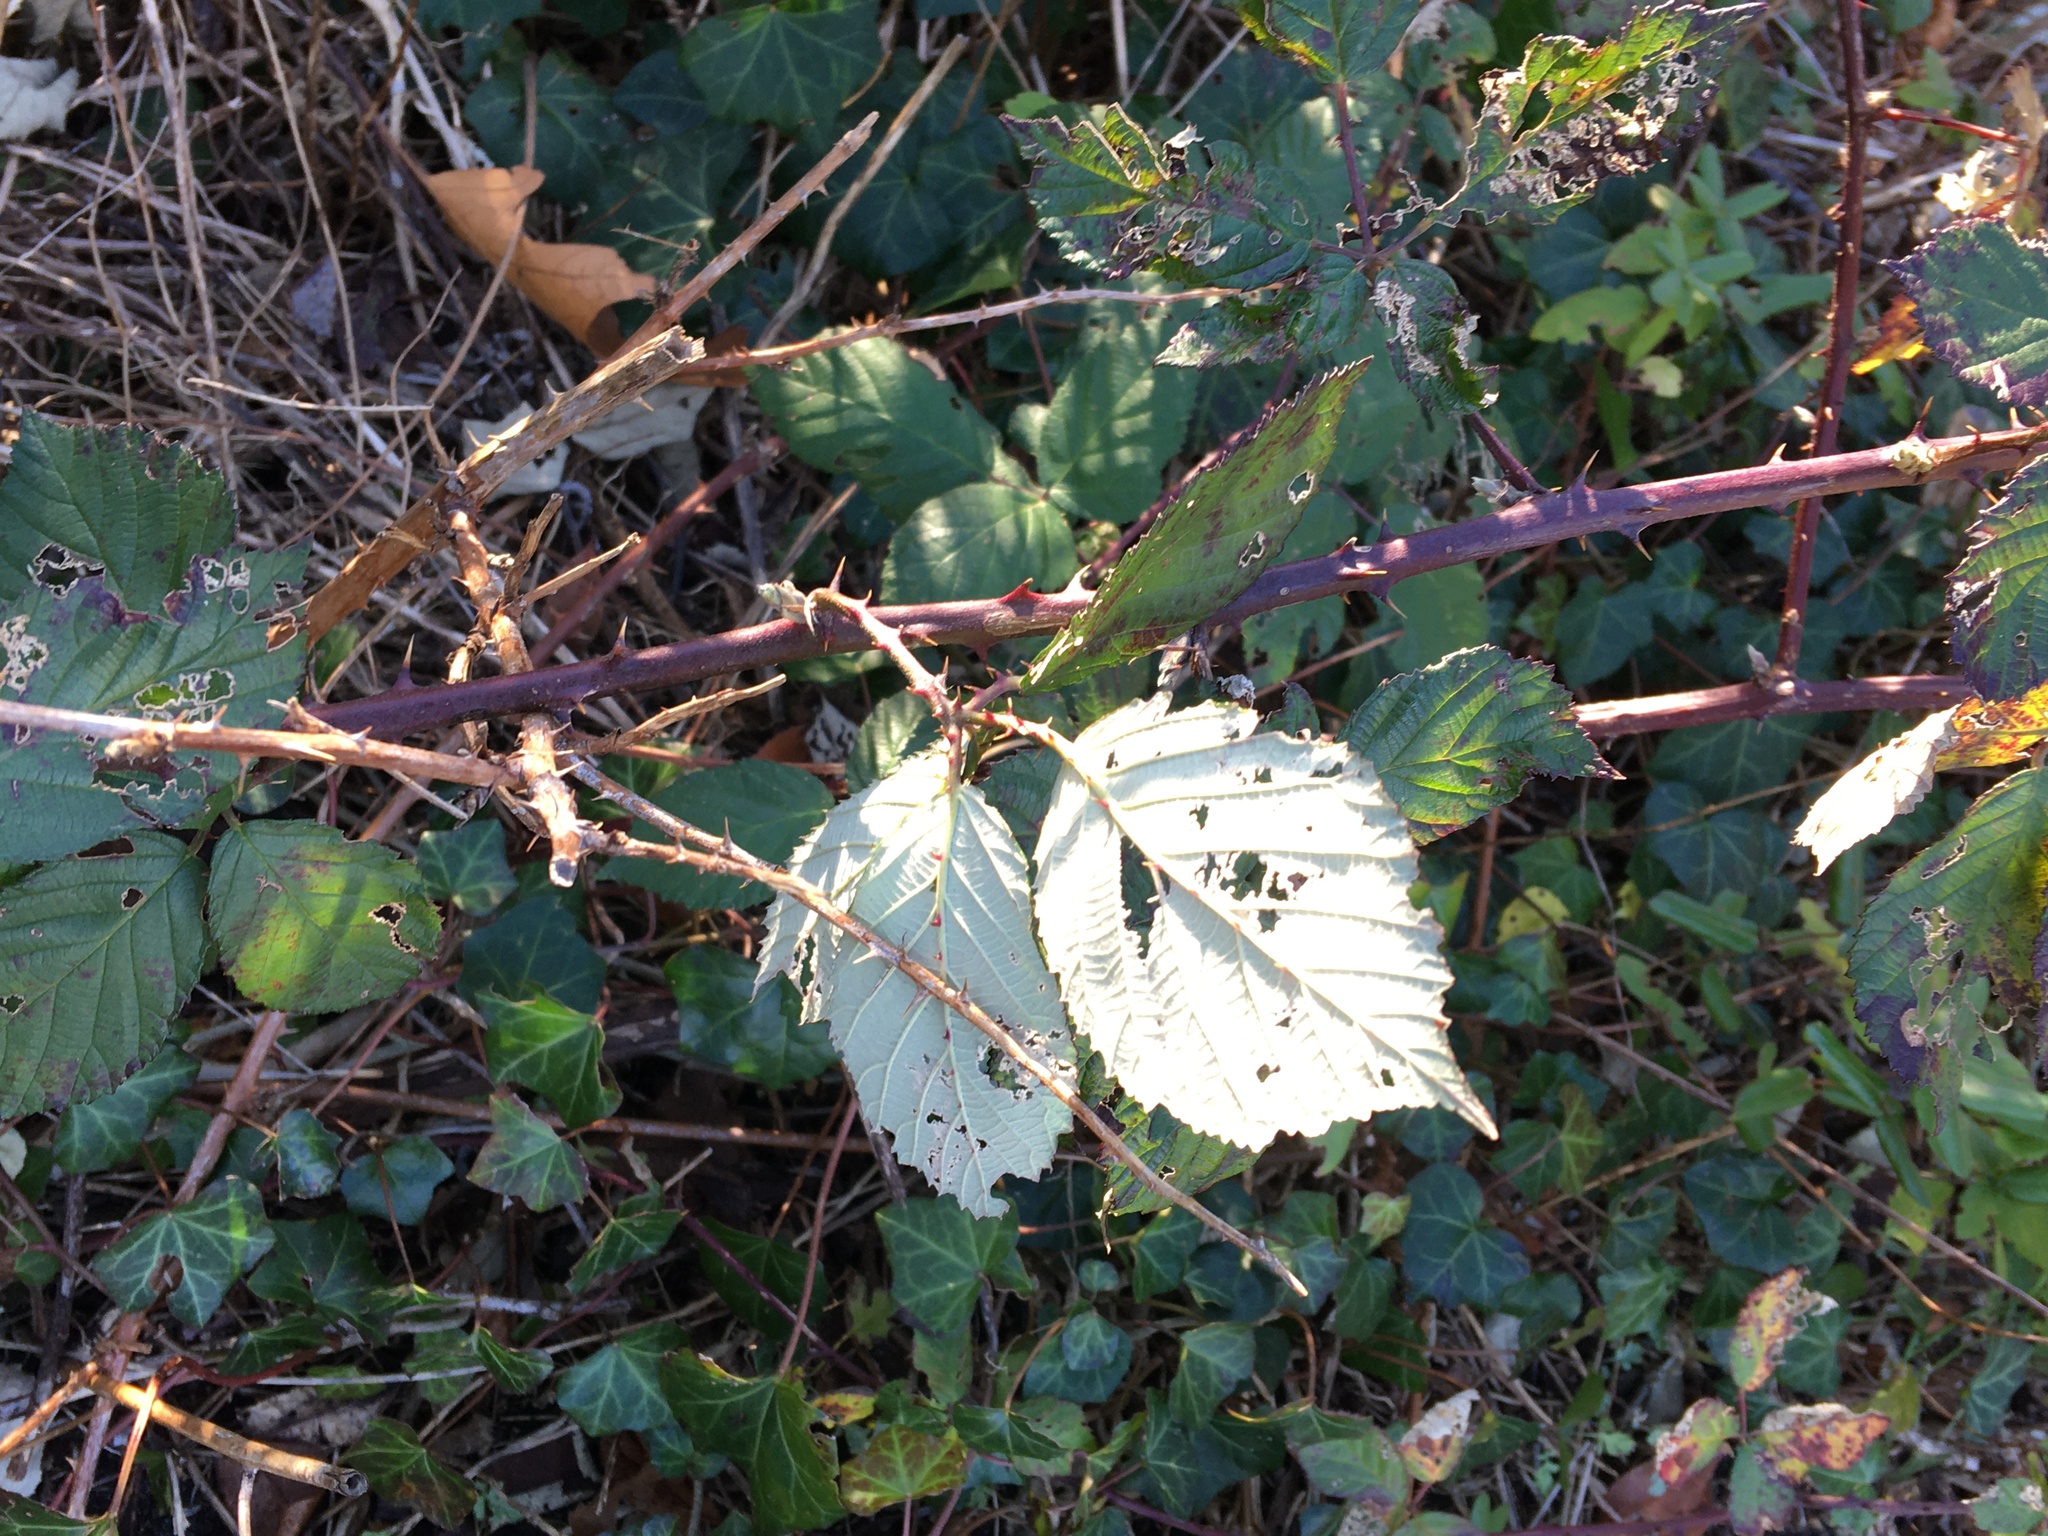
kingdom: Plantae
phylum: Tracheophyta
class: Magnoliopsida
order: Rosales
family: Rosaceae
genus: Rubus
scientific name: Rubus bifrons
